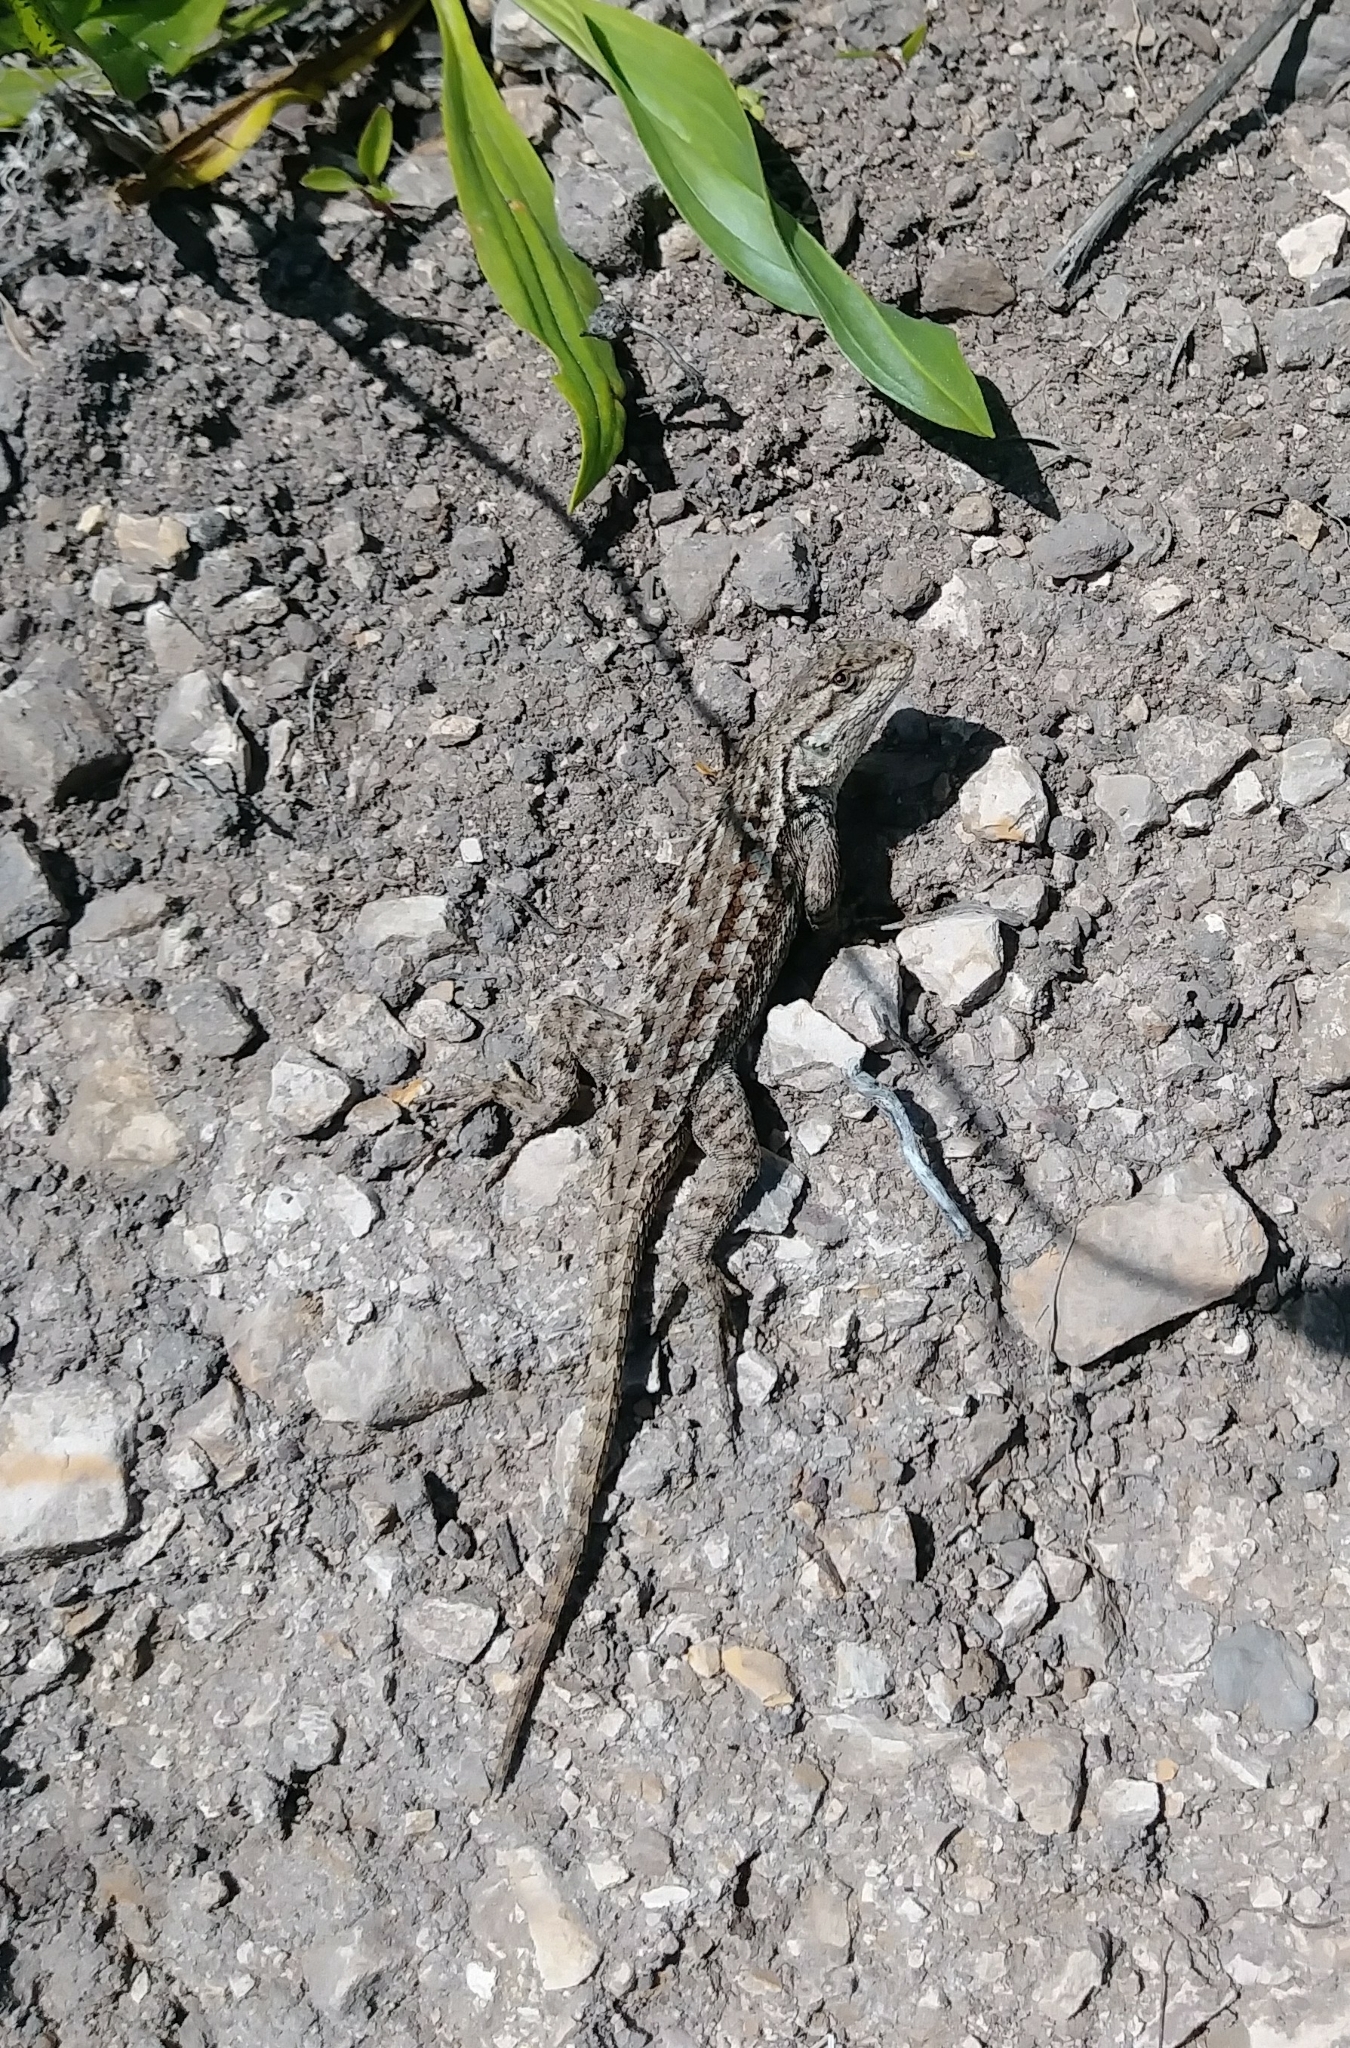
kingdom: Animalia
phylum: Chordata
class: Squamata
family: Phrynosomatidae
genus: Sceloporus
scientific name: Sceloporus occidentalis
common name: Western fence lizard
